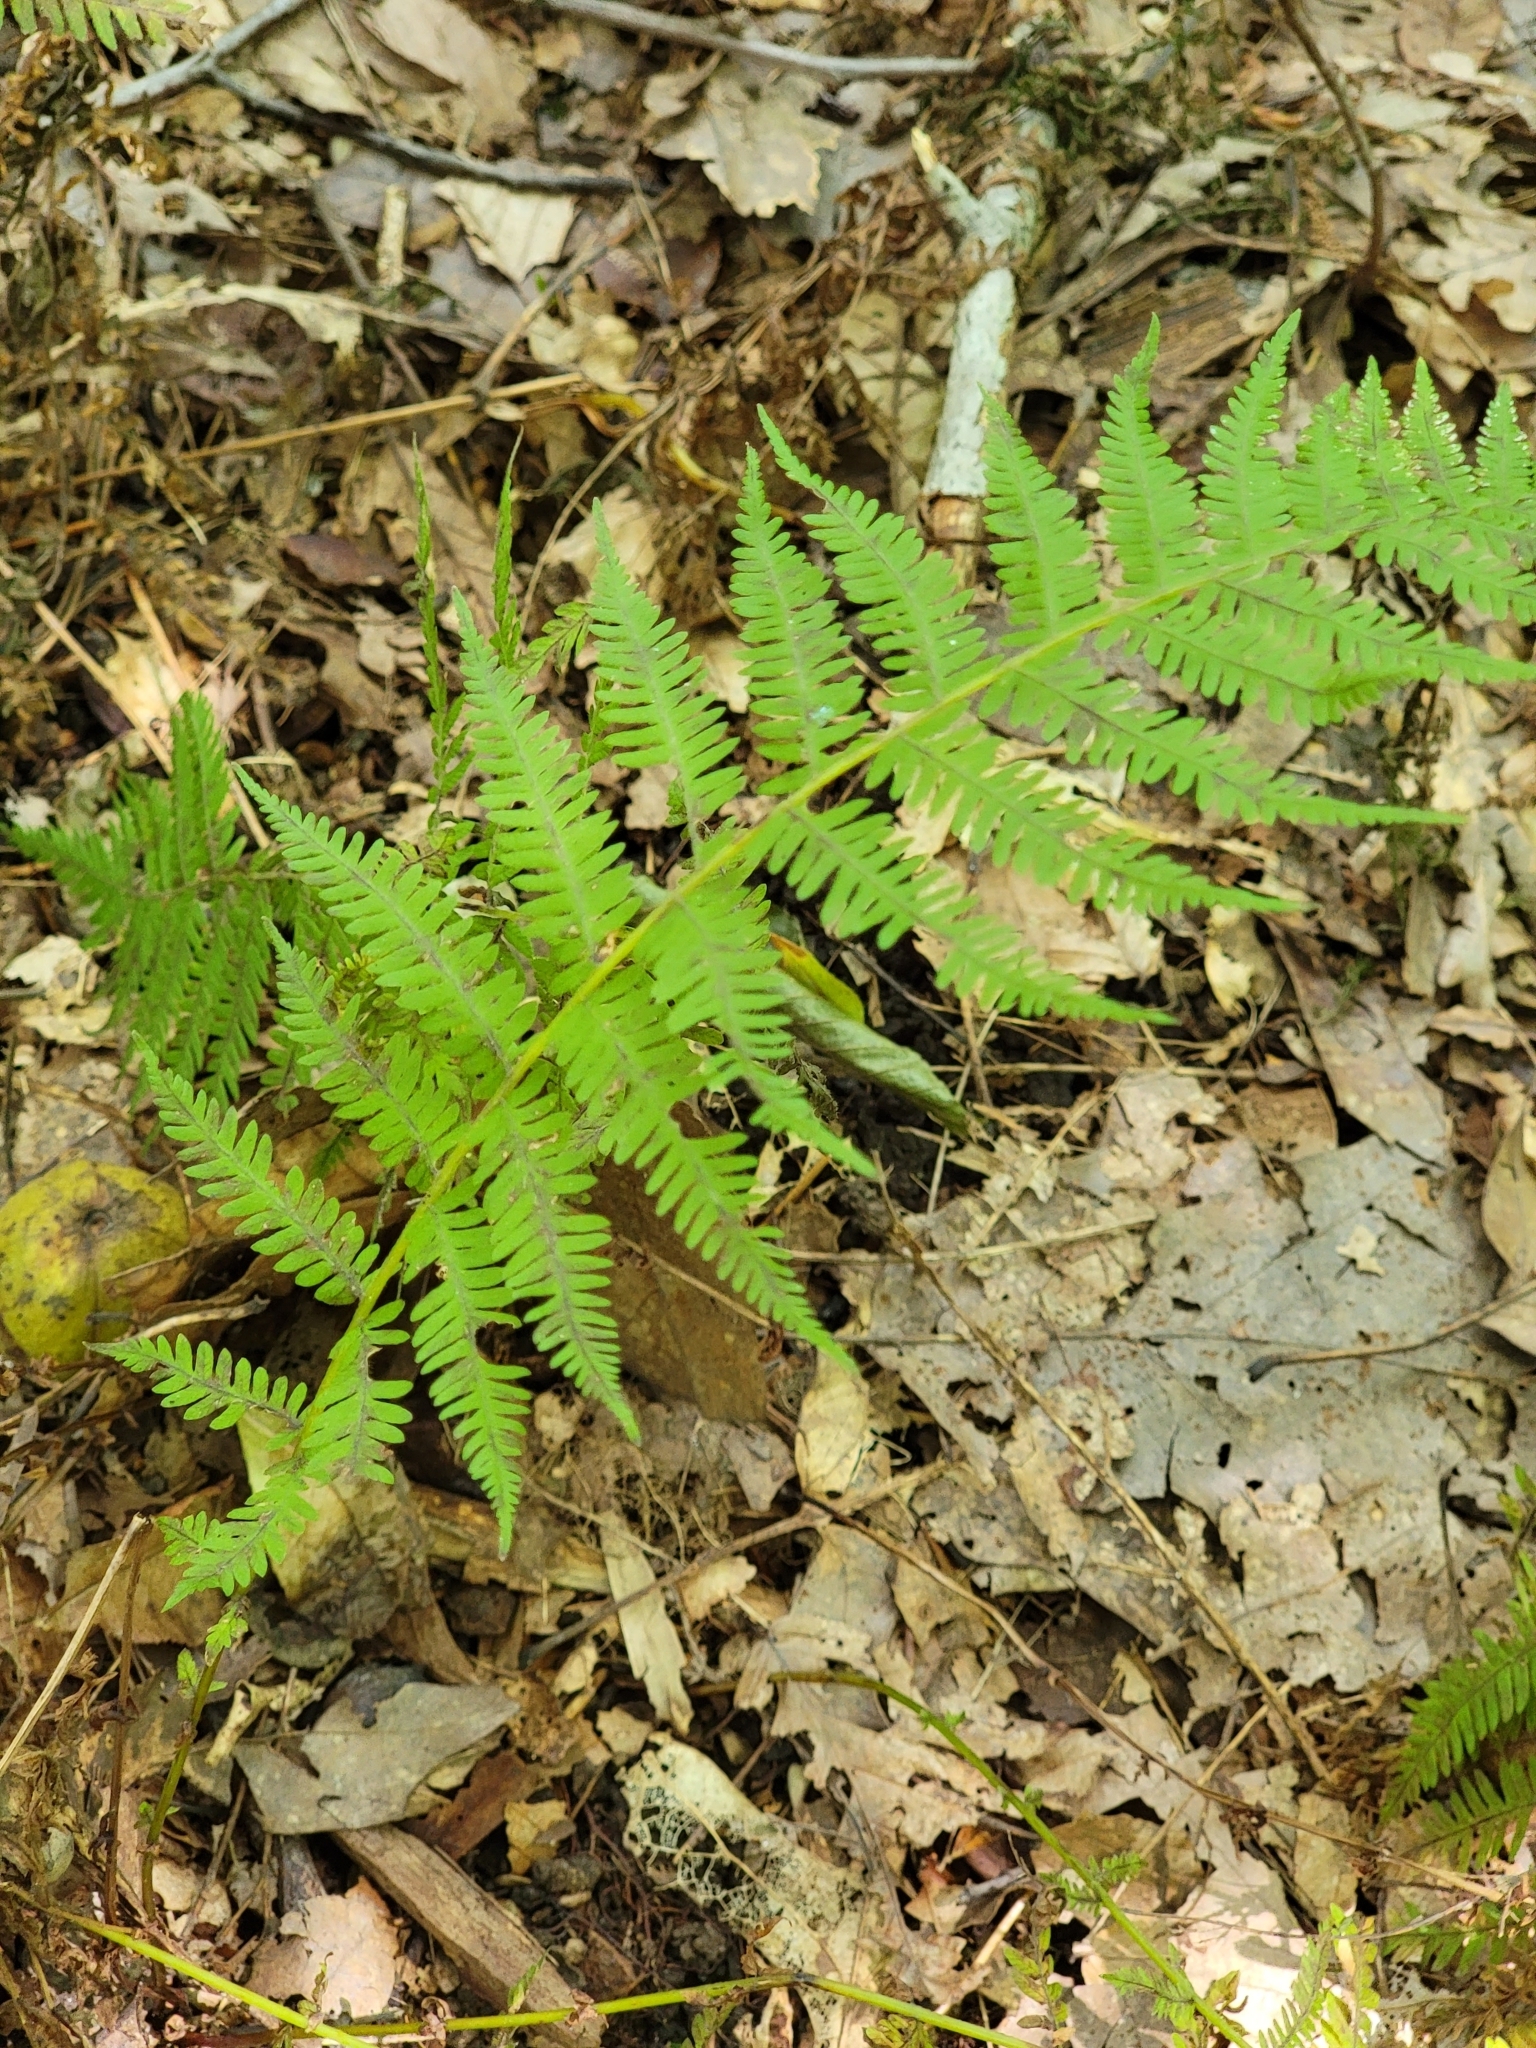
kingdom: Plantae
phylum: Tracheophyta
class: Polypodiopsida
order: Polypodiales
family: Thelypteridaceae
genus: Amauropelta
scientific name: Amauropelta noveboracensis
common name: New york fern
